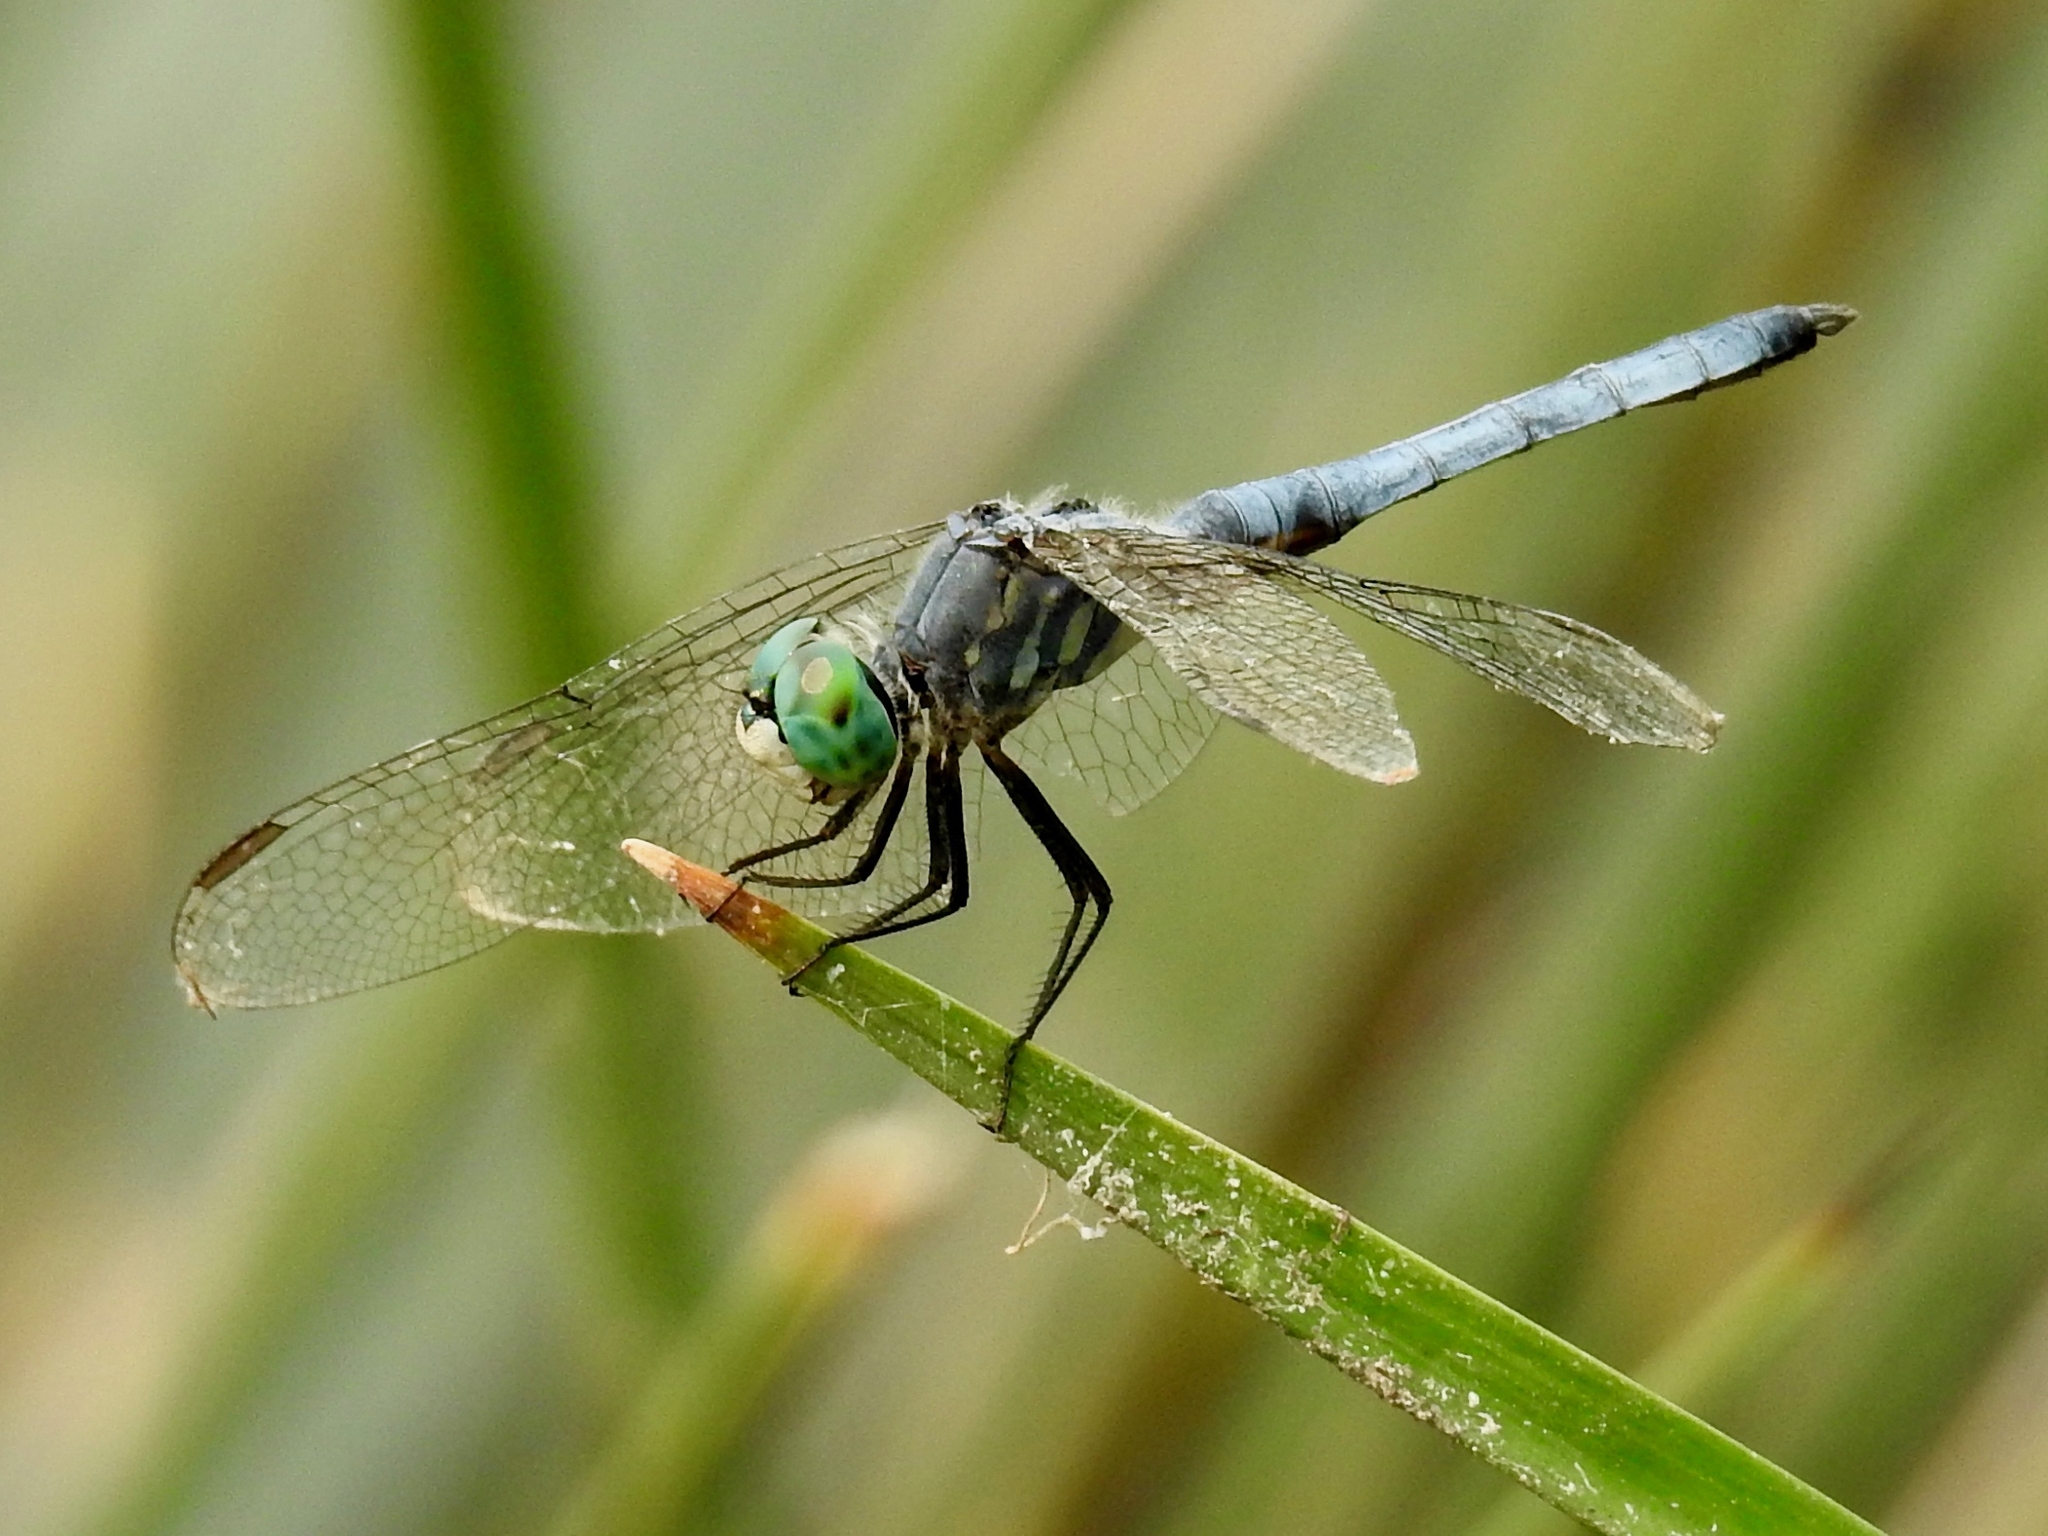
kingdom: Animalia
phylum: Arthropoda
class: Insecta
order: Odonata
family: Libellulidae
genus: Pachydiplax
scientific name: Pachydiplax longipennis
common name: Blue dasher
